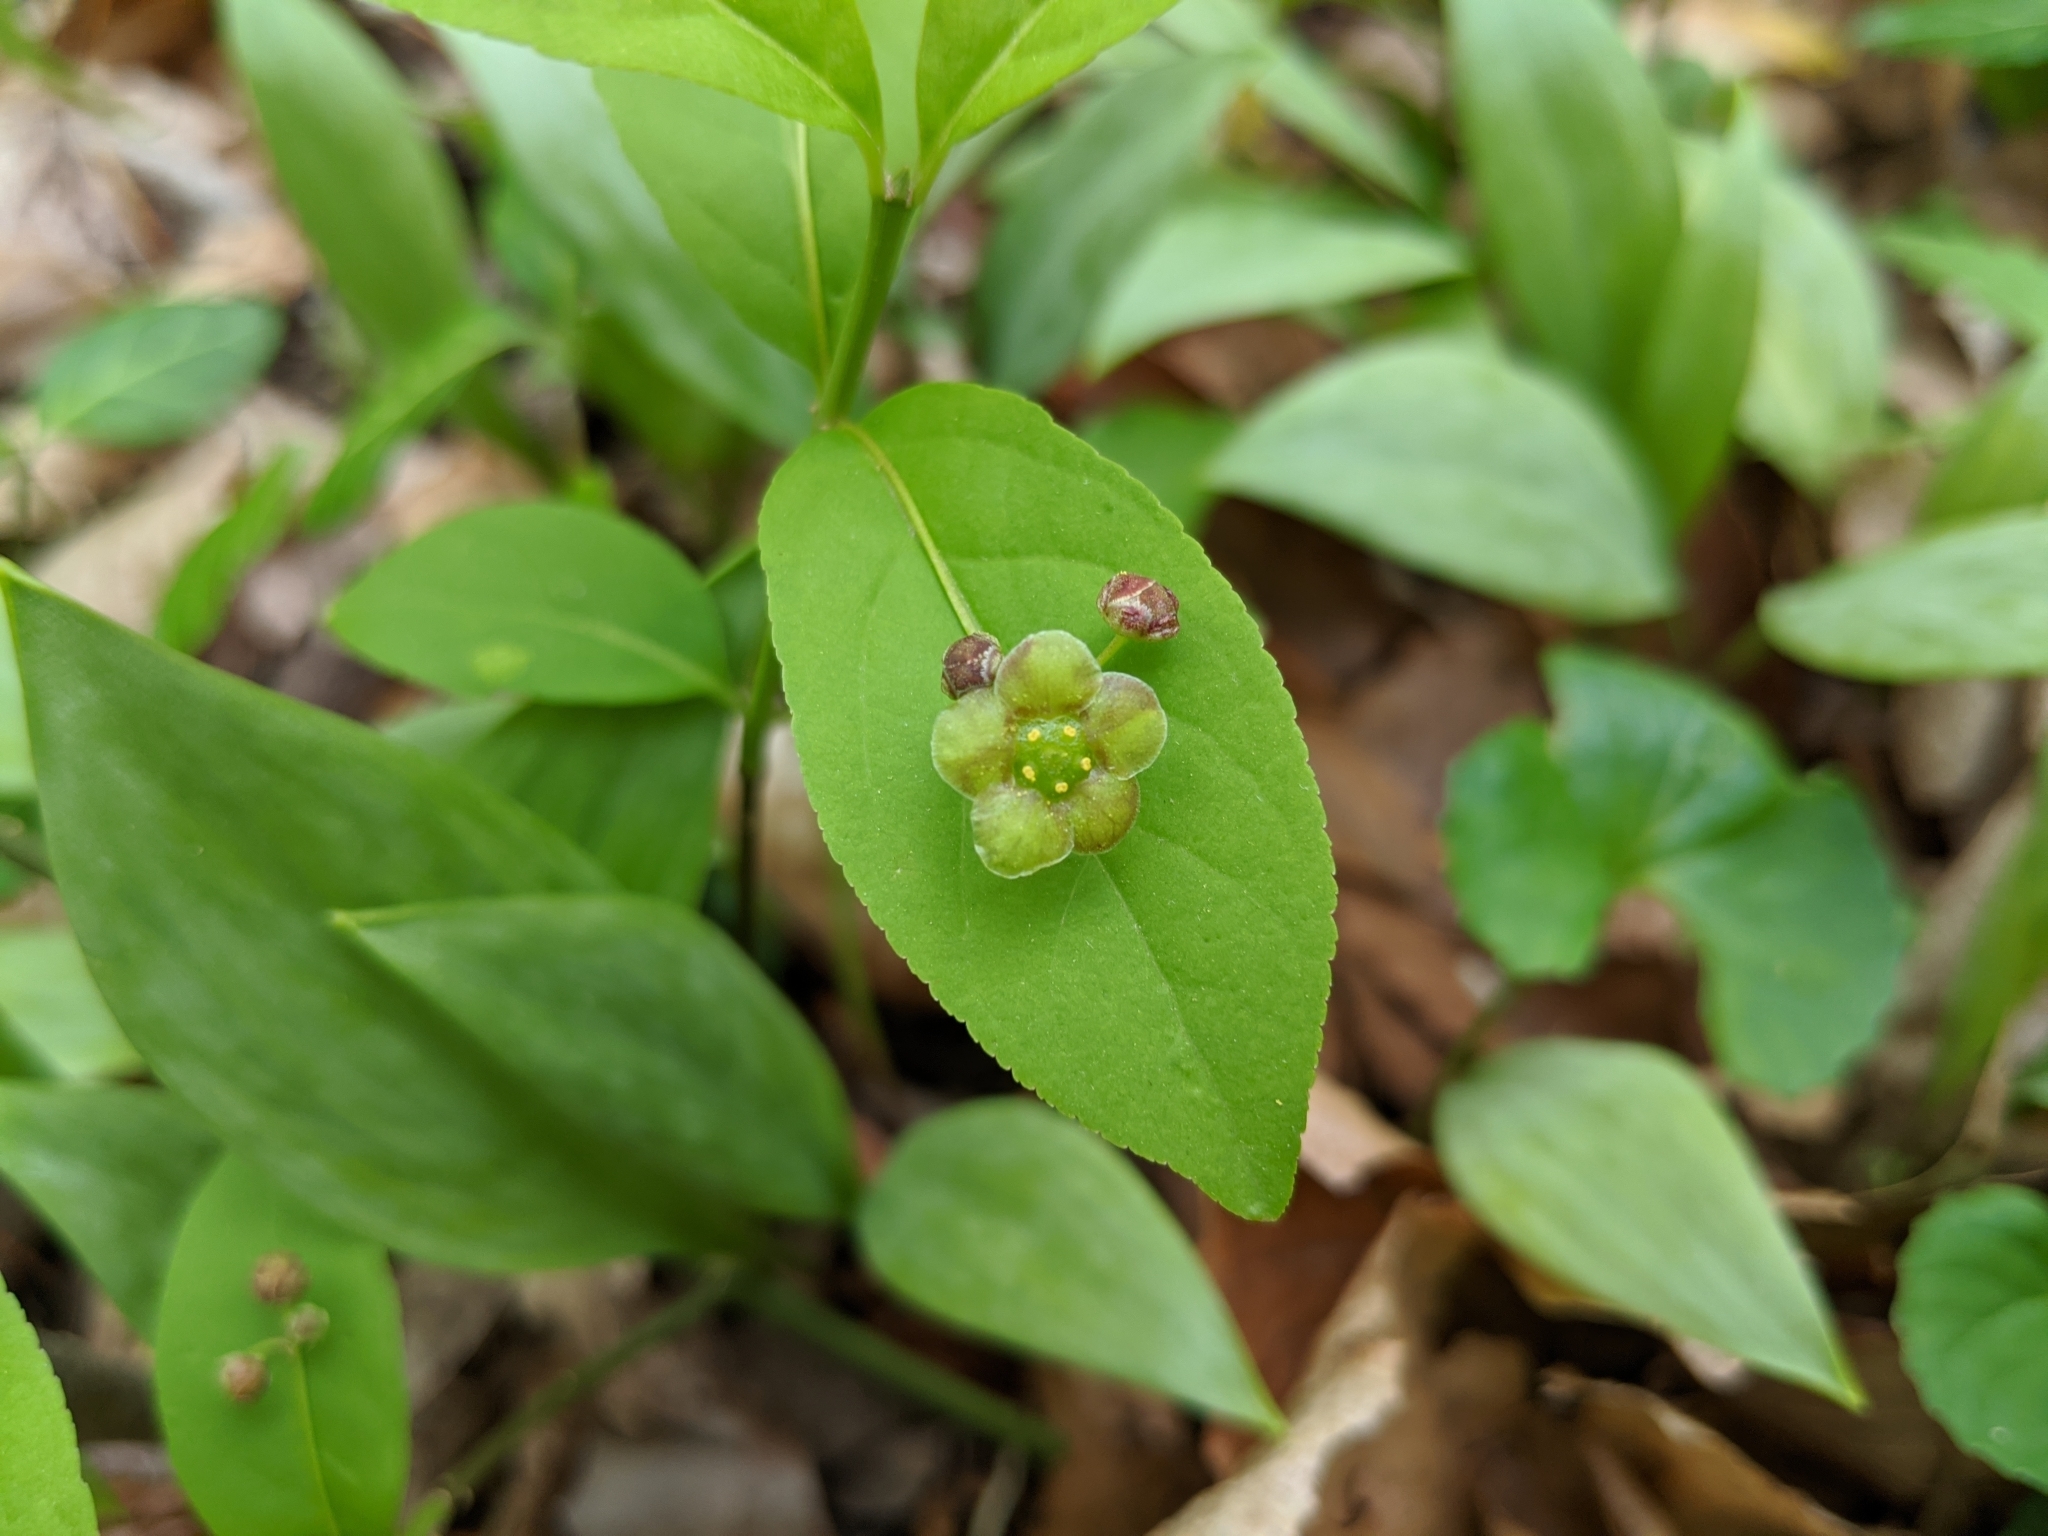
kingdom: Plantae
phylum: Tracheophyta
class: Magnoliopsida
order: Celastrales
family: Celastraceae
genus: Euonymus
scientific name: Euonymus obovatus
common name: Running strawberry-bush
